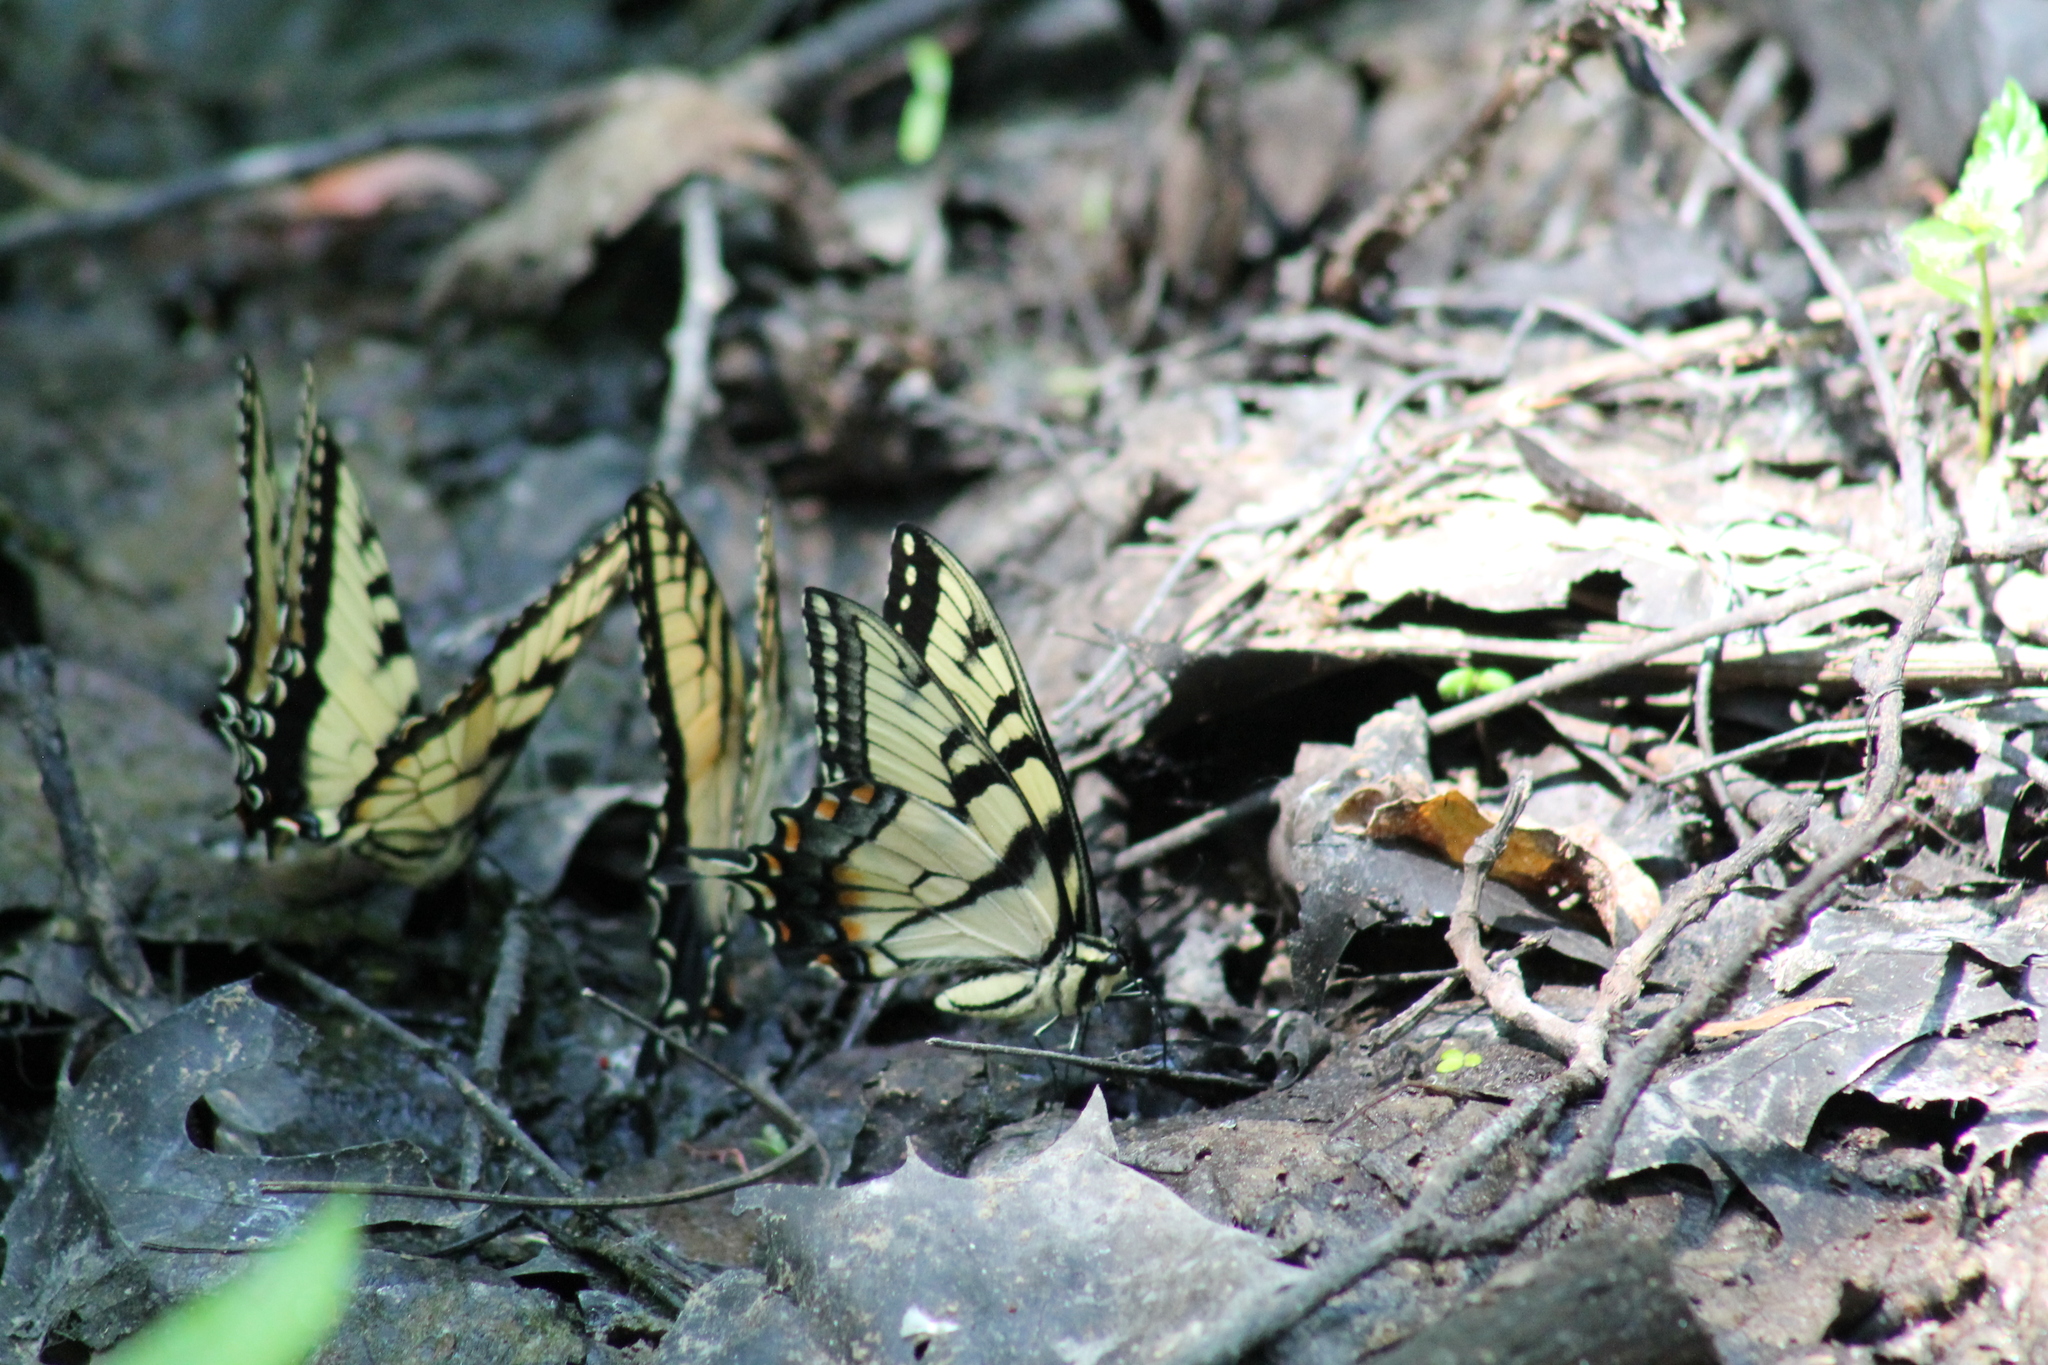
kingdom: Animalia
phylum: Arthropoda
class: Insecta
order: Lepidoptera
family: Papilionidae
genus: Papilio
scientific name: Papilio glaucus
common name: Tiger swallowtail
